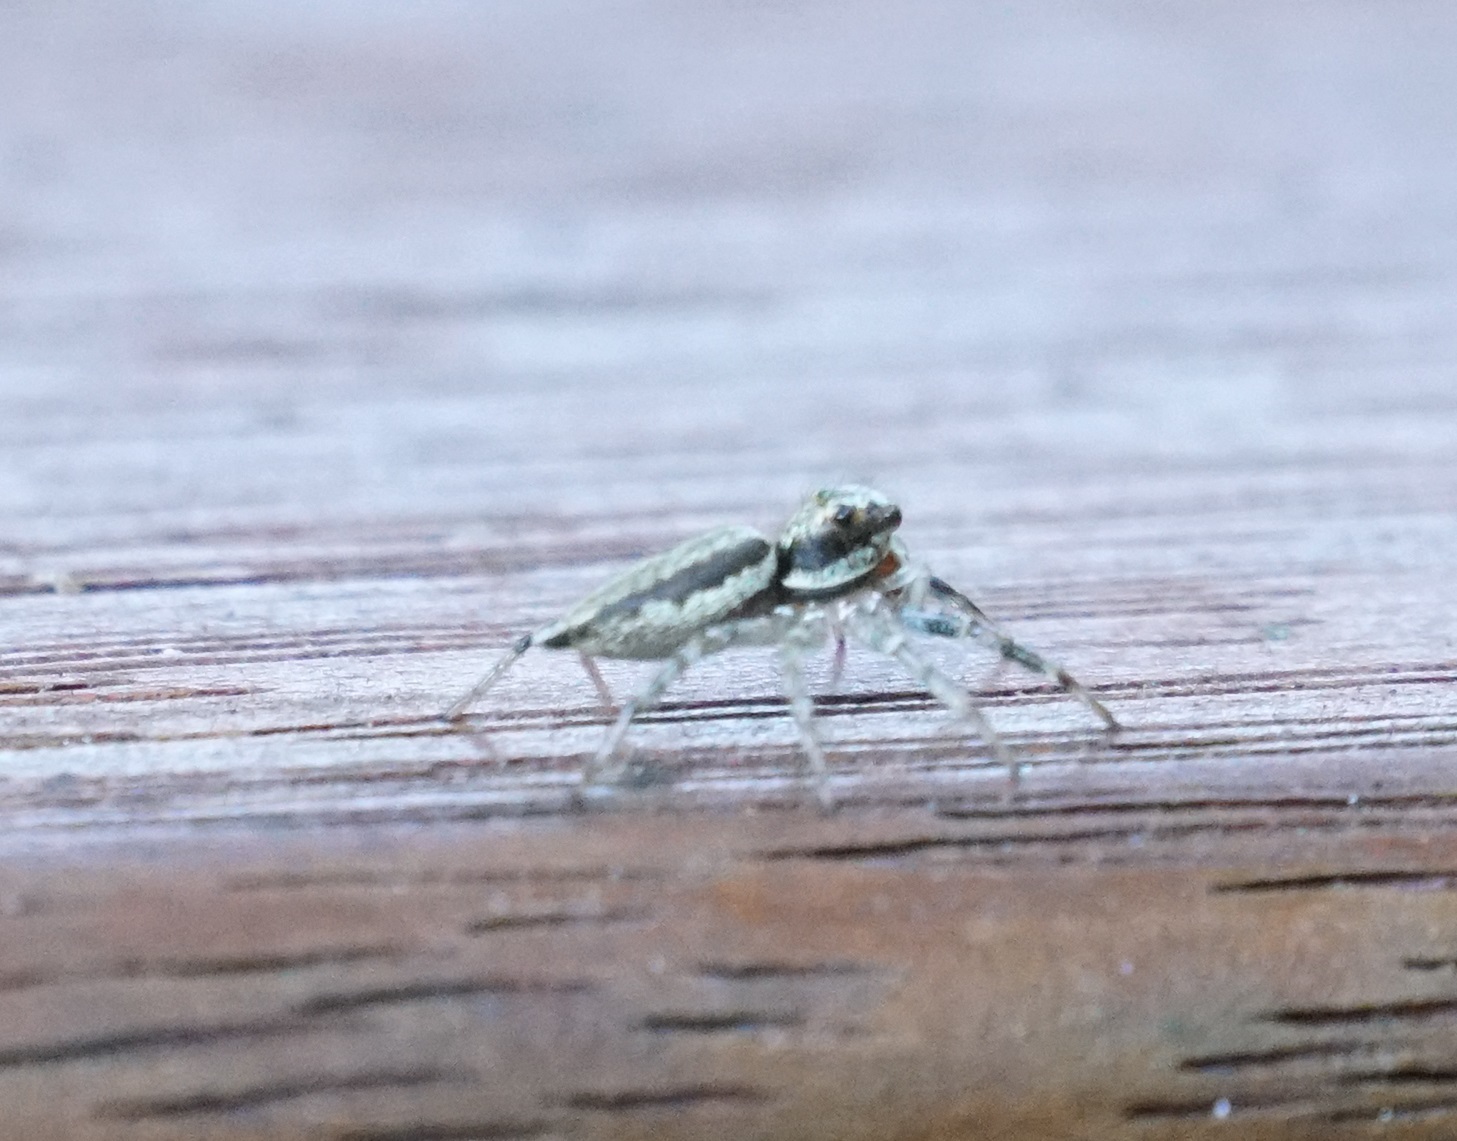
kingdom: Animalia
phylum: Arthropoda
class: Arachnida
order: Araneae
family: Salticidae
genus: Zenodorus
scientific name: Zenodorus swiftorum
